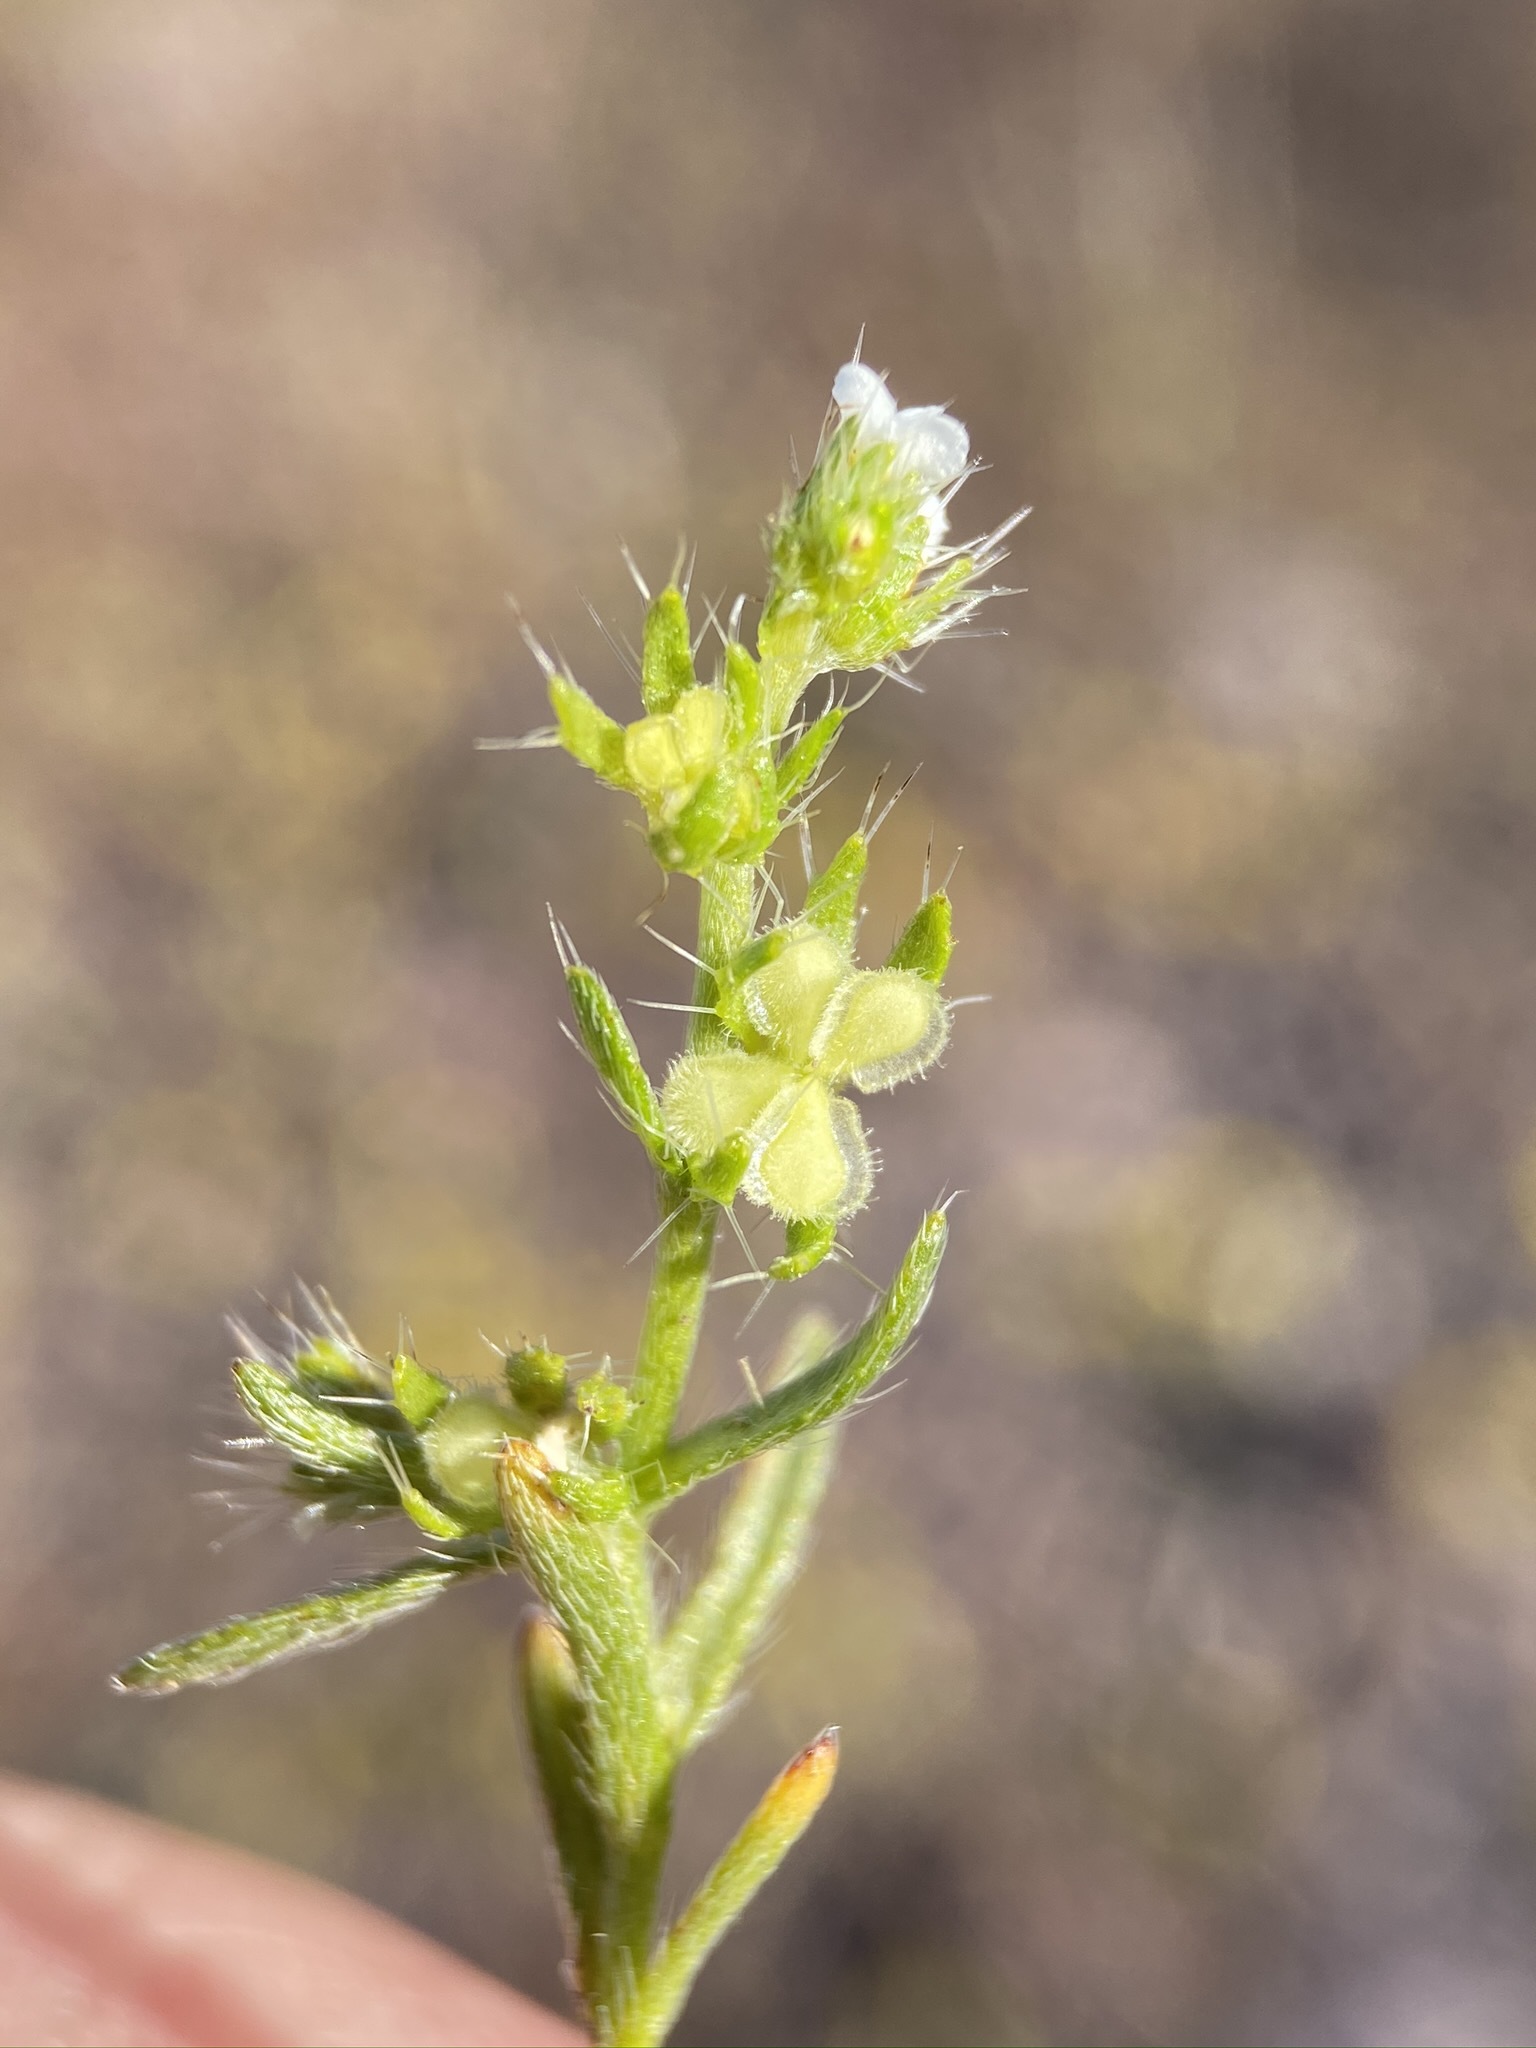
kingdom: Plantae
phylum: Tracheophyta
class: Magnoliopsida
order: Boraginales
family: Boraginaceae
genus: Pectocarya
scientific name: Pectocarya setosa
